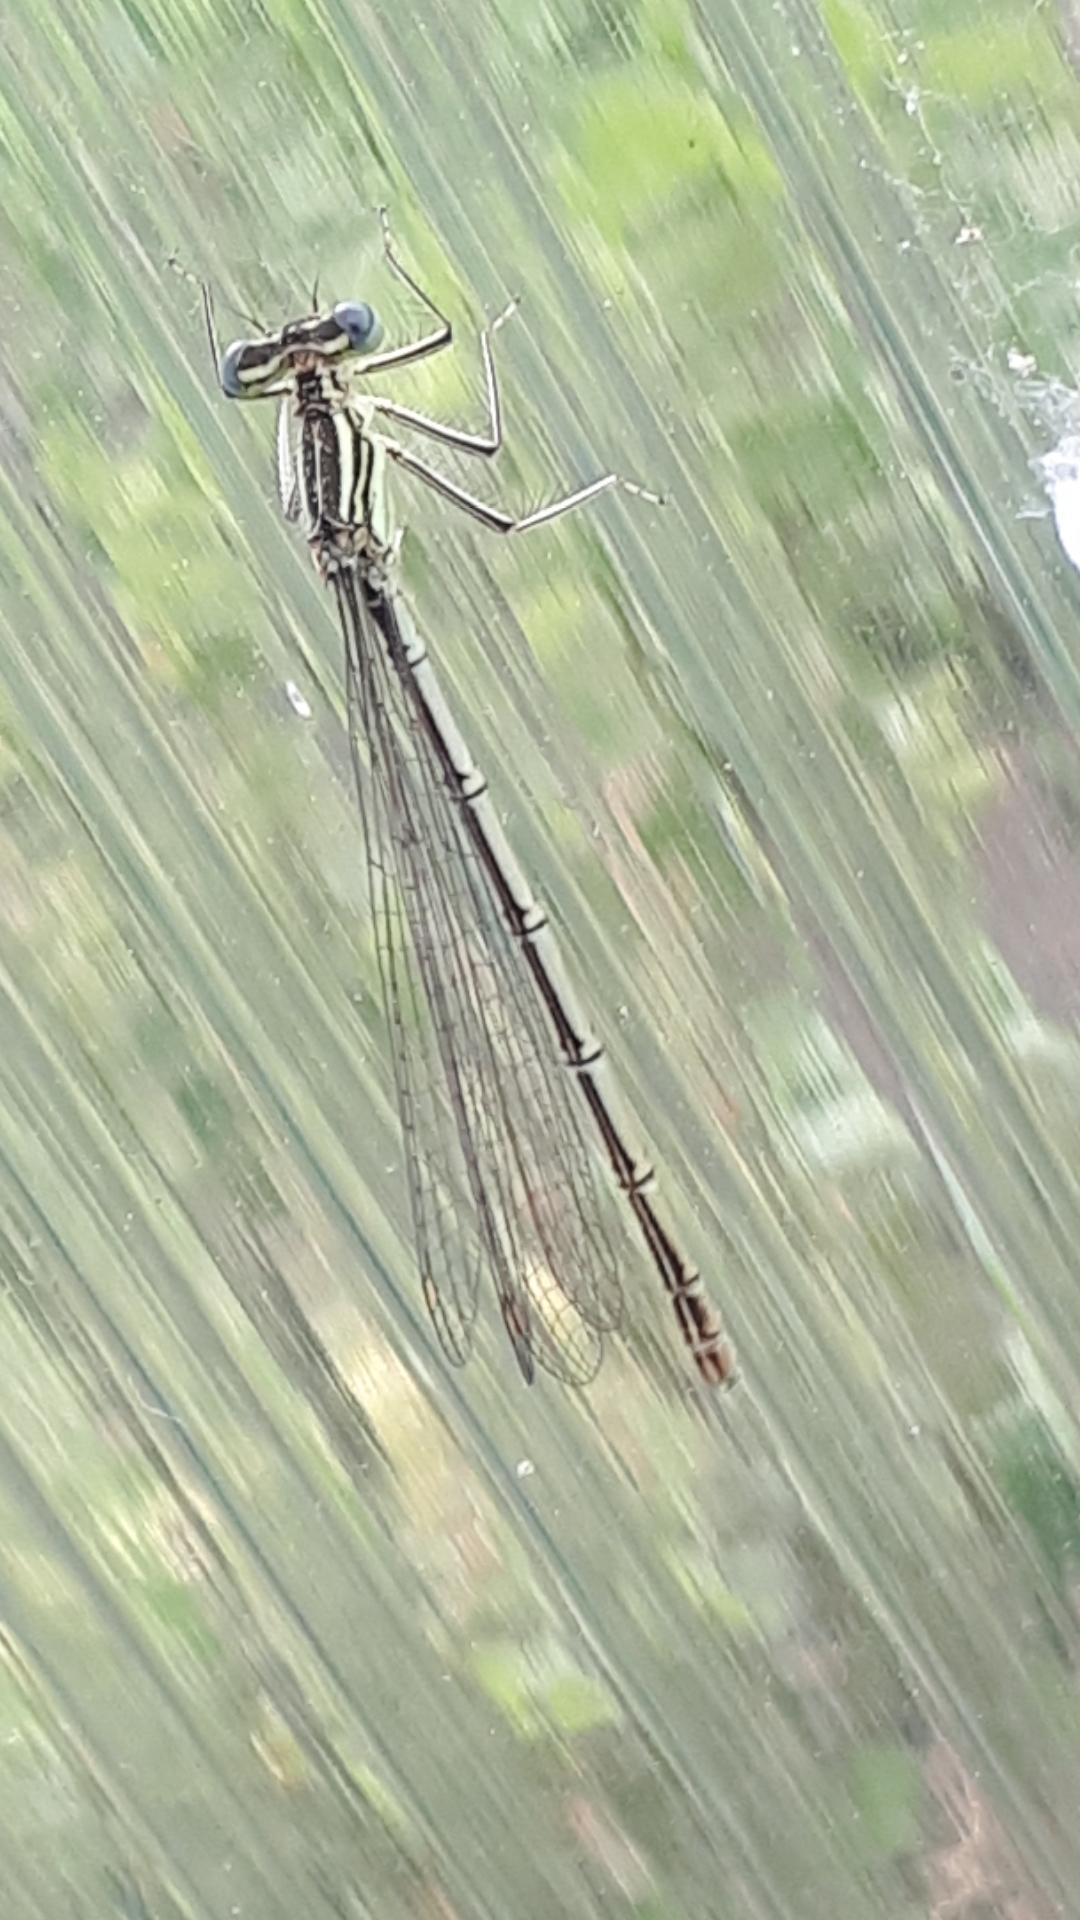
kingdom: Animalia
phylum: Arthropoda
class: Insecta
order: Odonata
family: Platycnemididae
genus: Platycnemis
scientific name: Platycnemis pennipes
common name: White-legged damselfly
